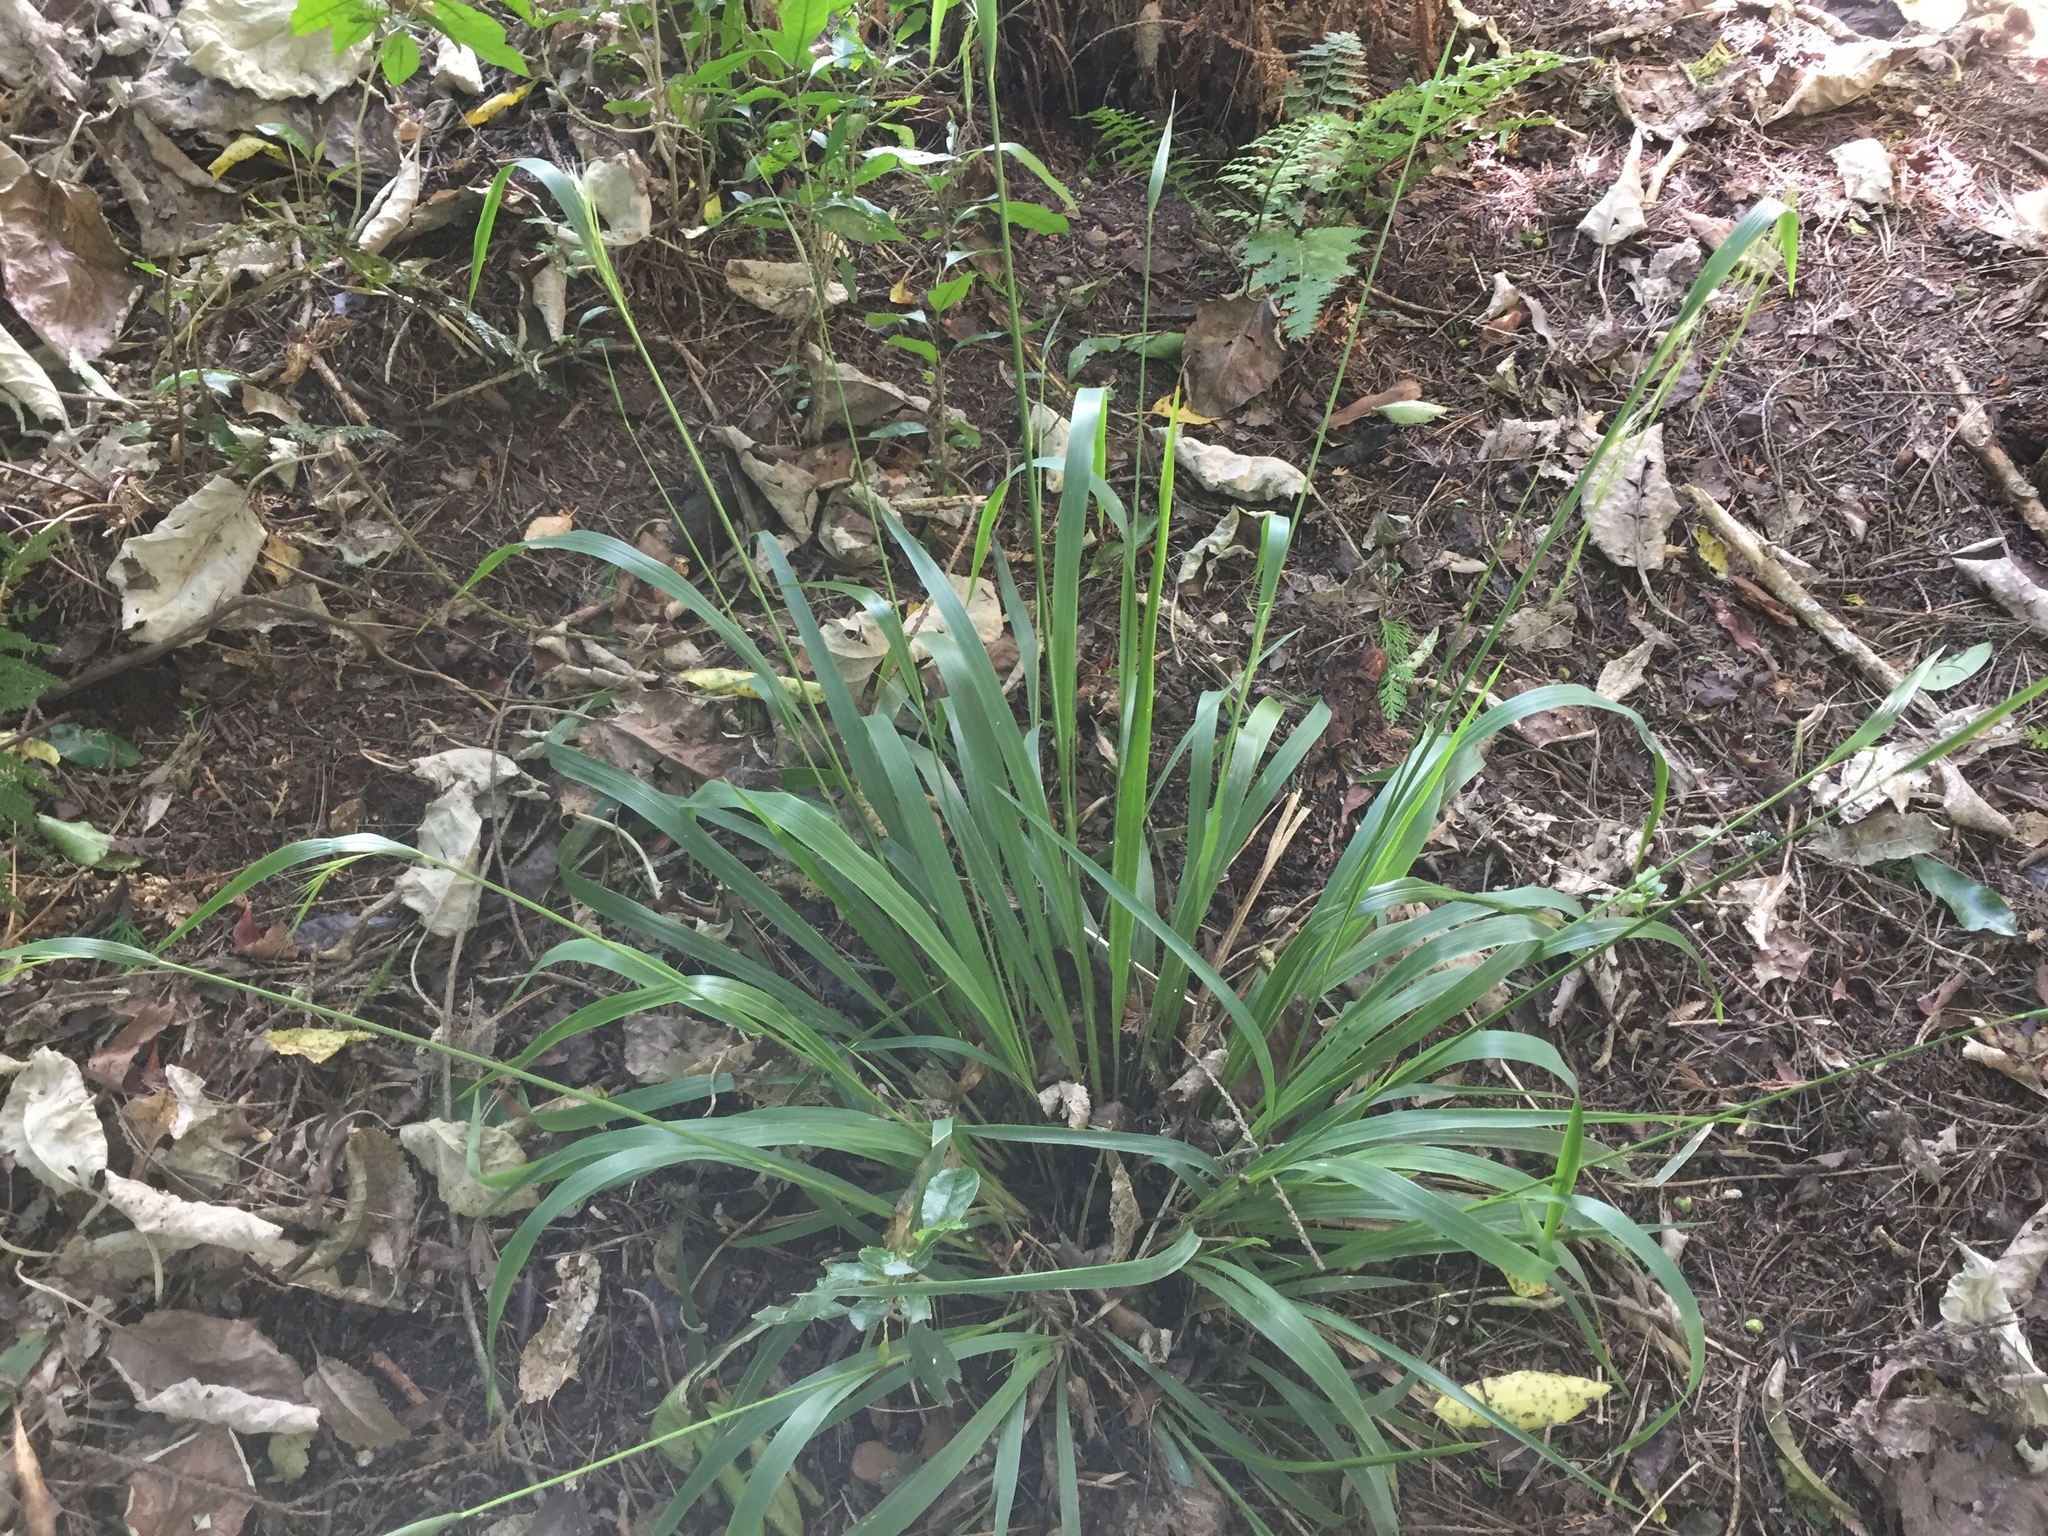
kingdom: Plantae
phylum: Tracheophyta
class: Liliopsida
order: Poales
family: Poaceae
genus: Ehrharta
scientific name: Ehrharta diplax
